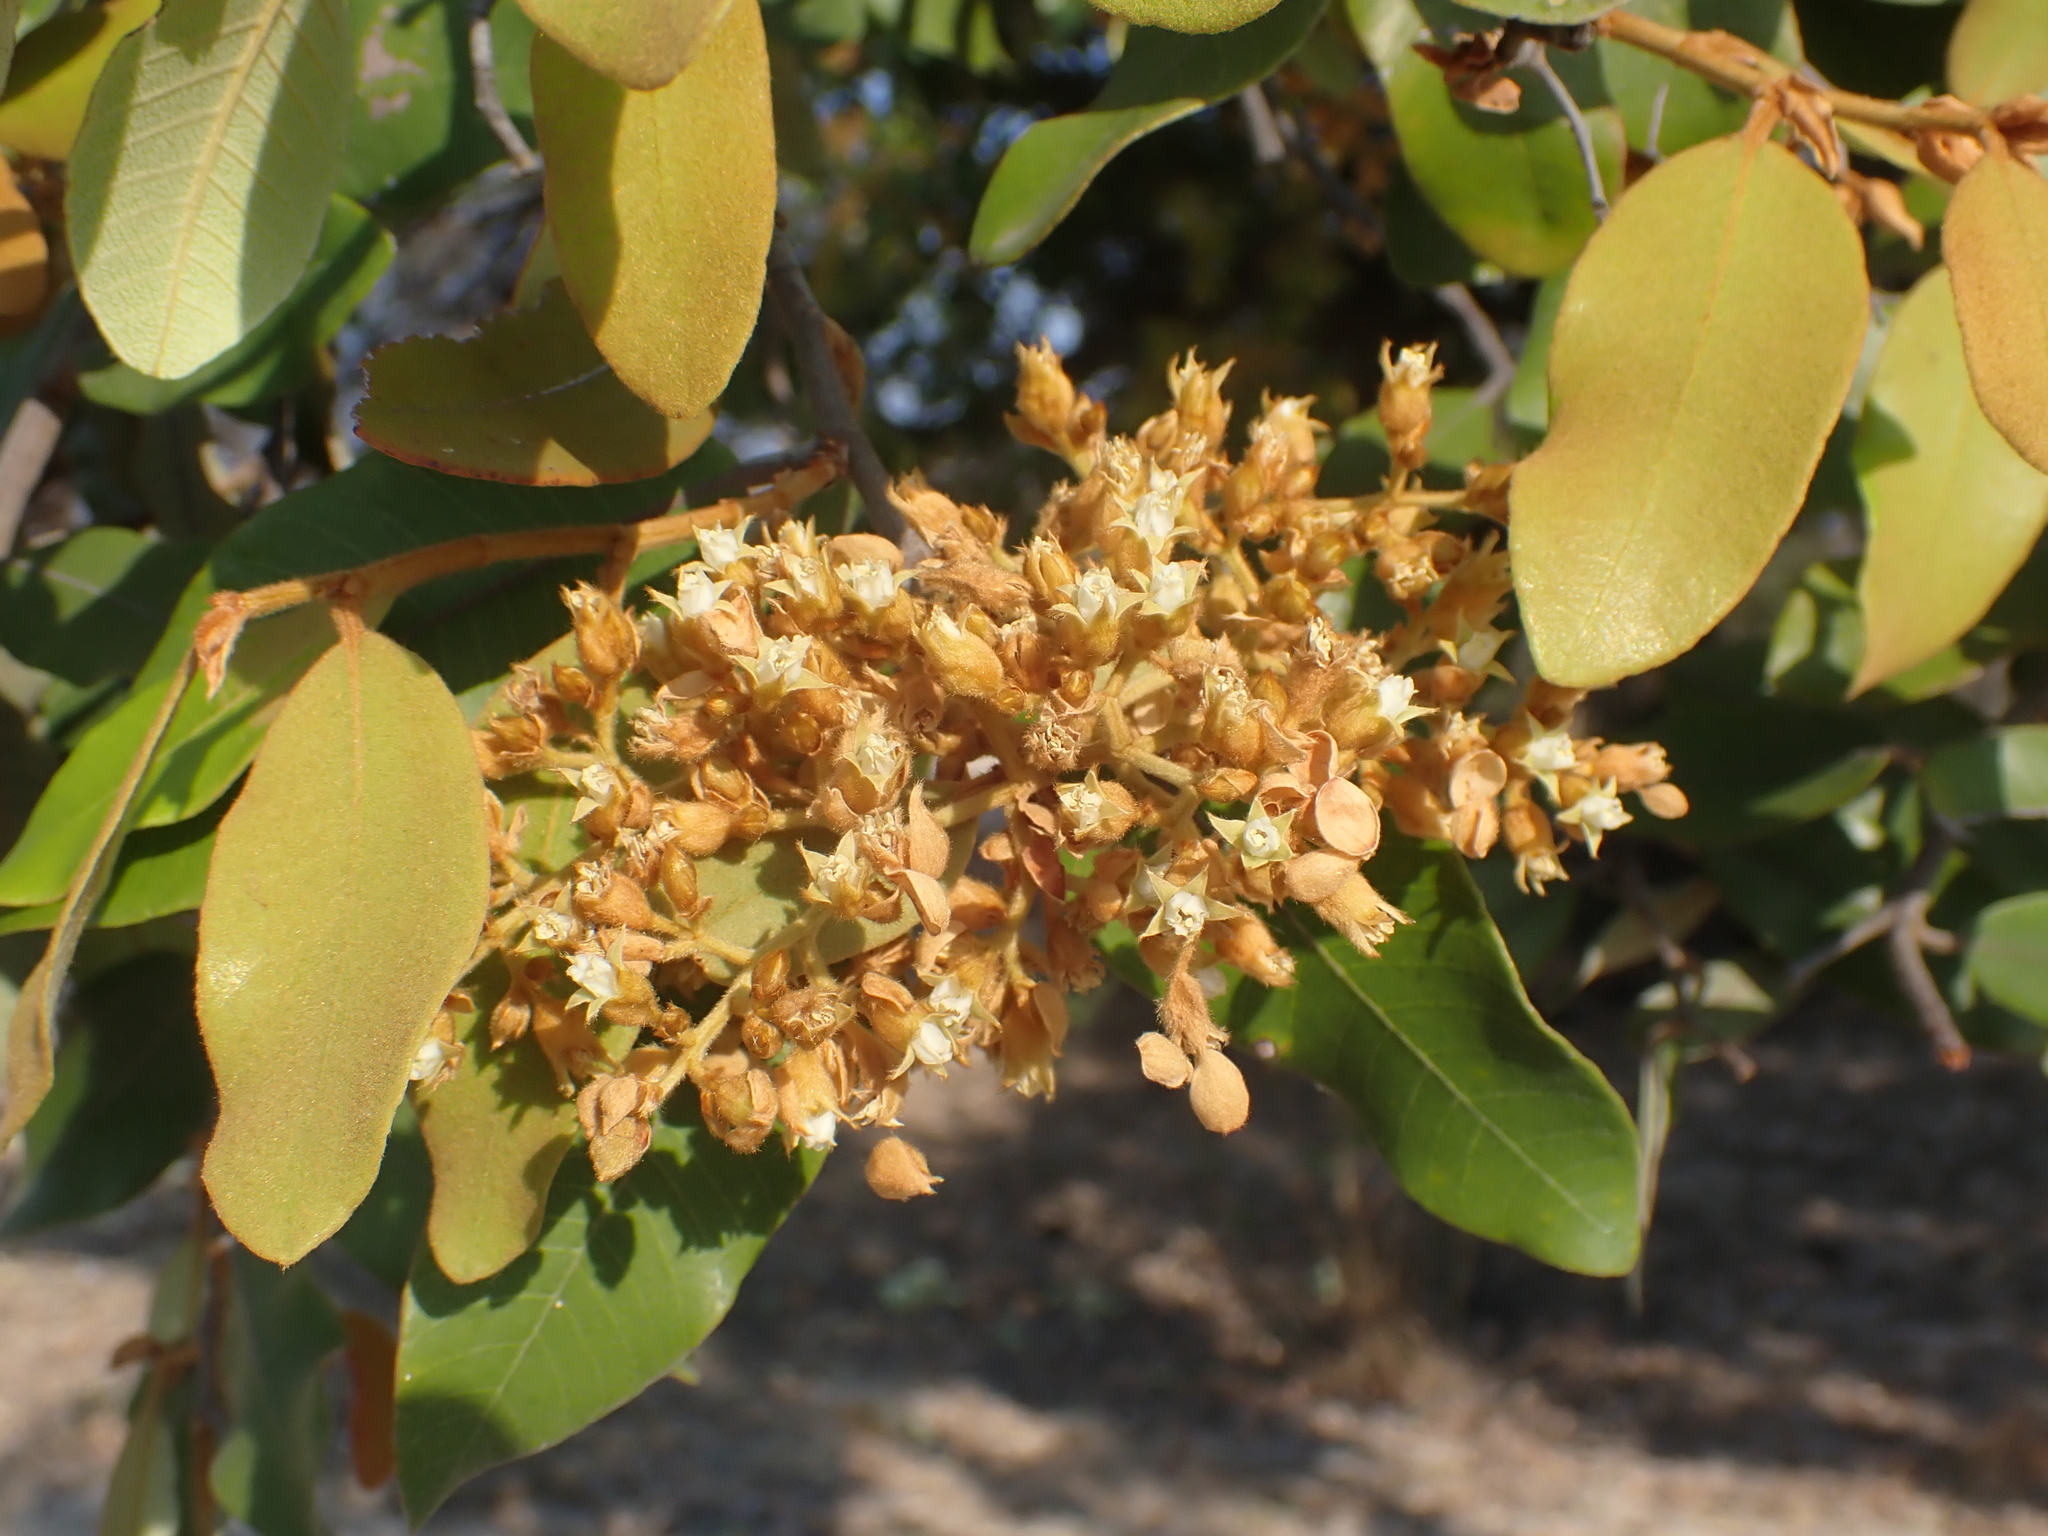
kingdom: Plantae
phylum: Tracheophyta
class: Magnoliopsida
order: Malpighiales
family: Chrysobalanaceae
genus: Parinari
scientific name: Parinari curatellifolia
